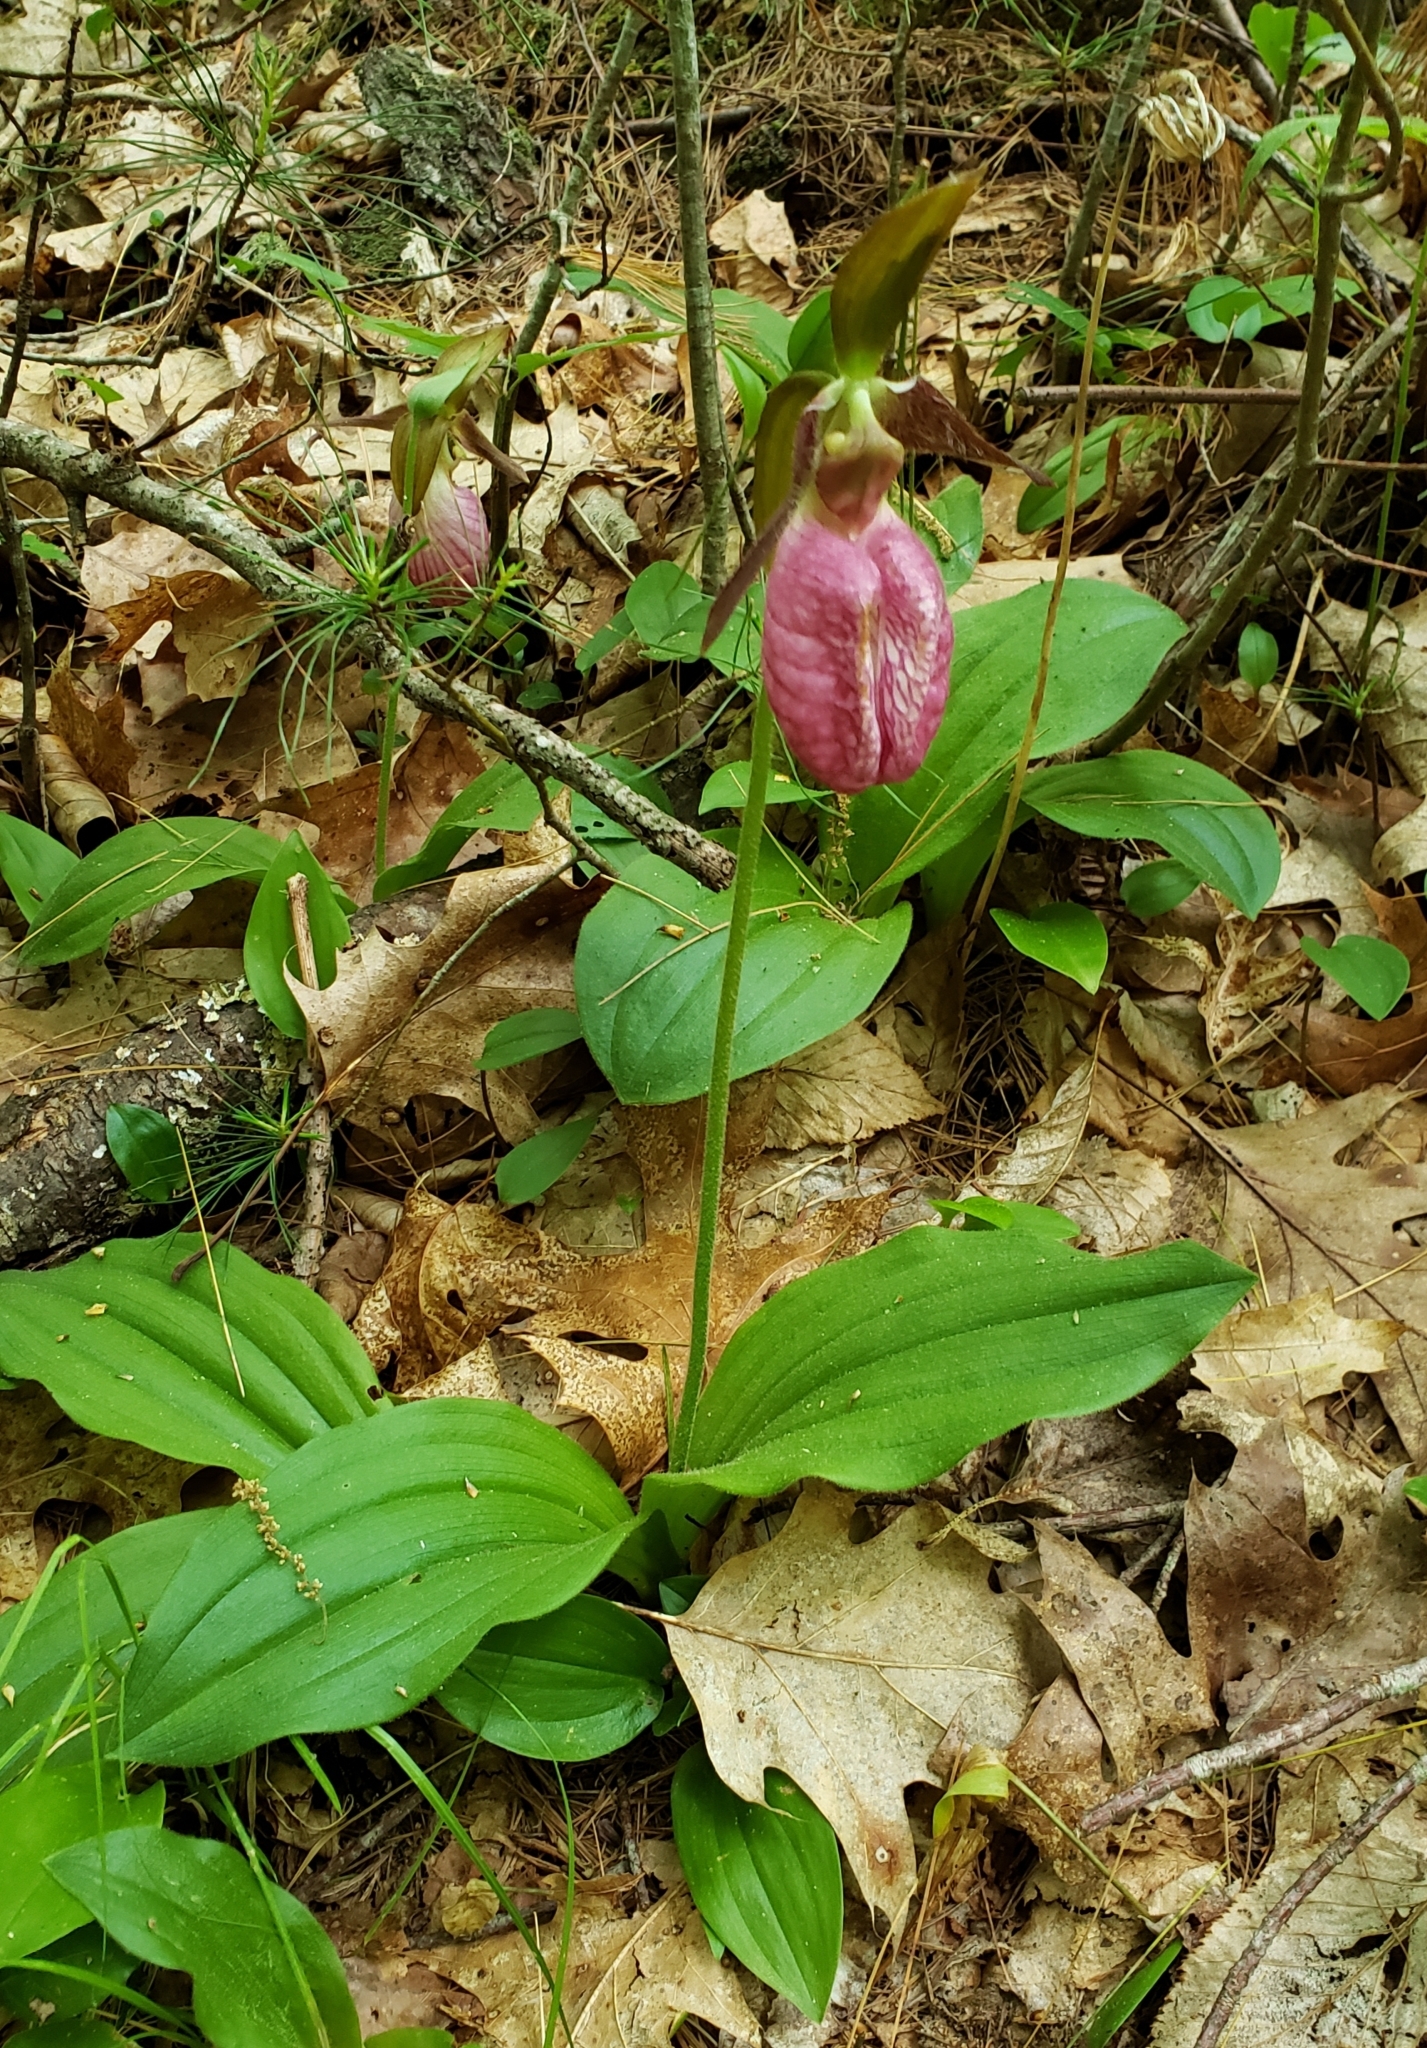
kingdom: Plantae
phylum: Tracheophyta
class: Liliopsida
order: Asparagales
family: Orchidaceae
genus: Cypripedium
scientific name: Cypripedium acaule
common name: Pink lady's-slipper
